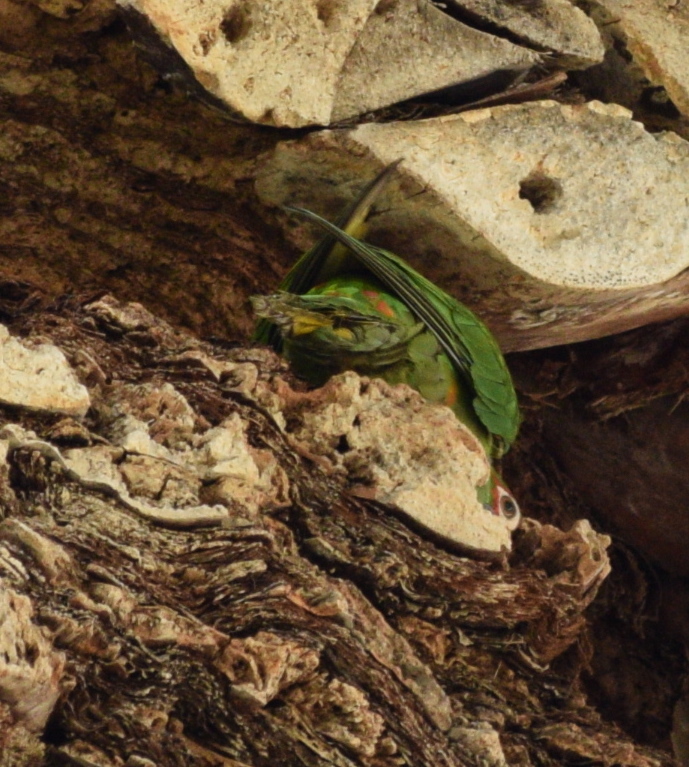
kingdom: Animalia
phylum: Chordata
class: Aves
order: Psittaciformes
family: Psittacidae
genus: Aratinga
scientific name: Aratinga mitrata
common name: Mitred parakeet
